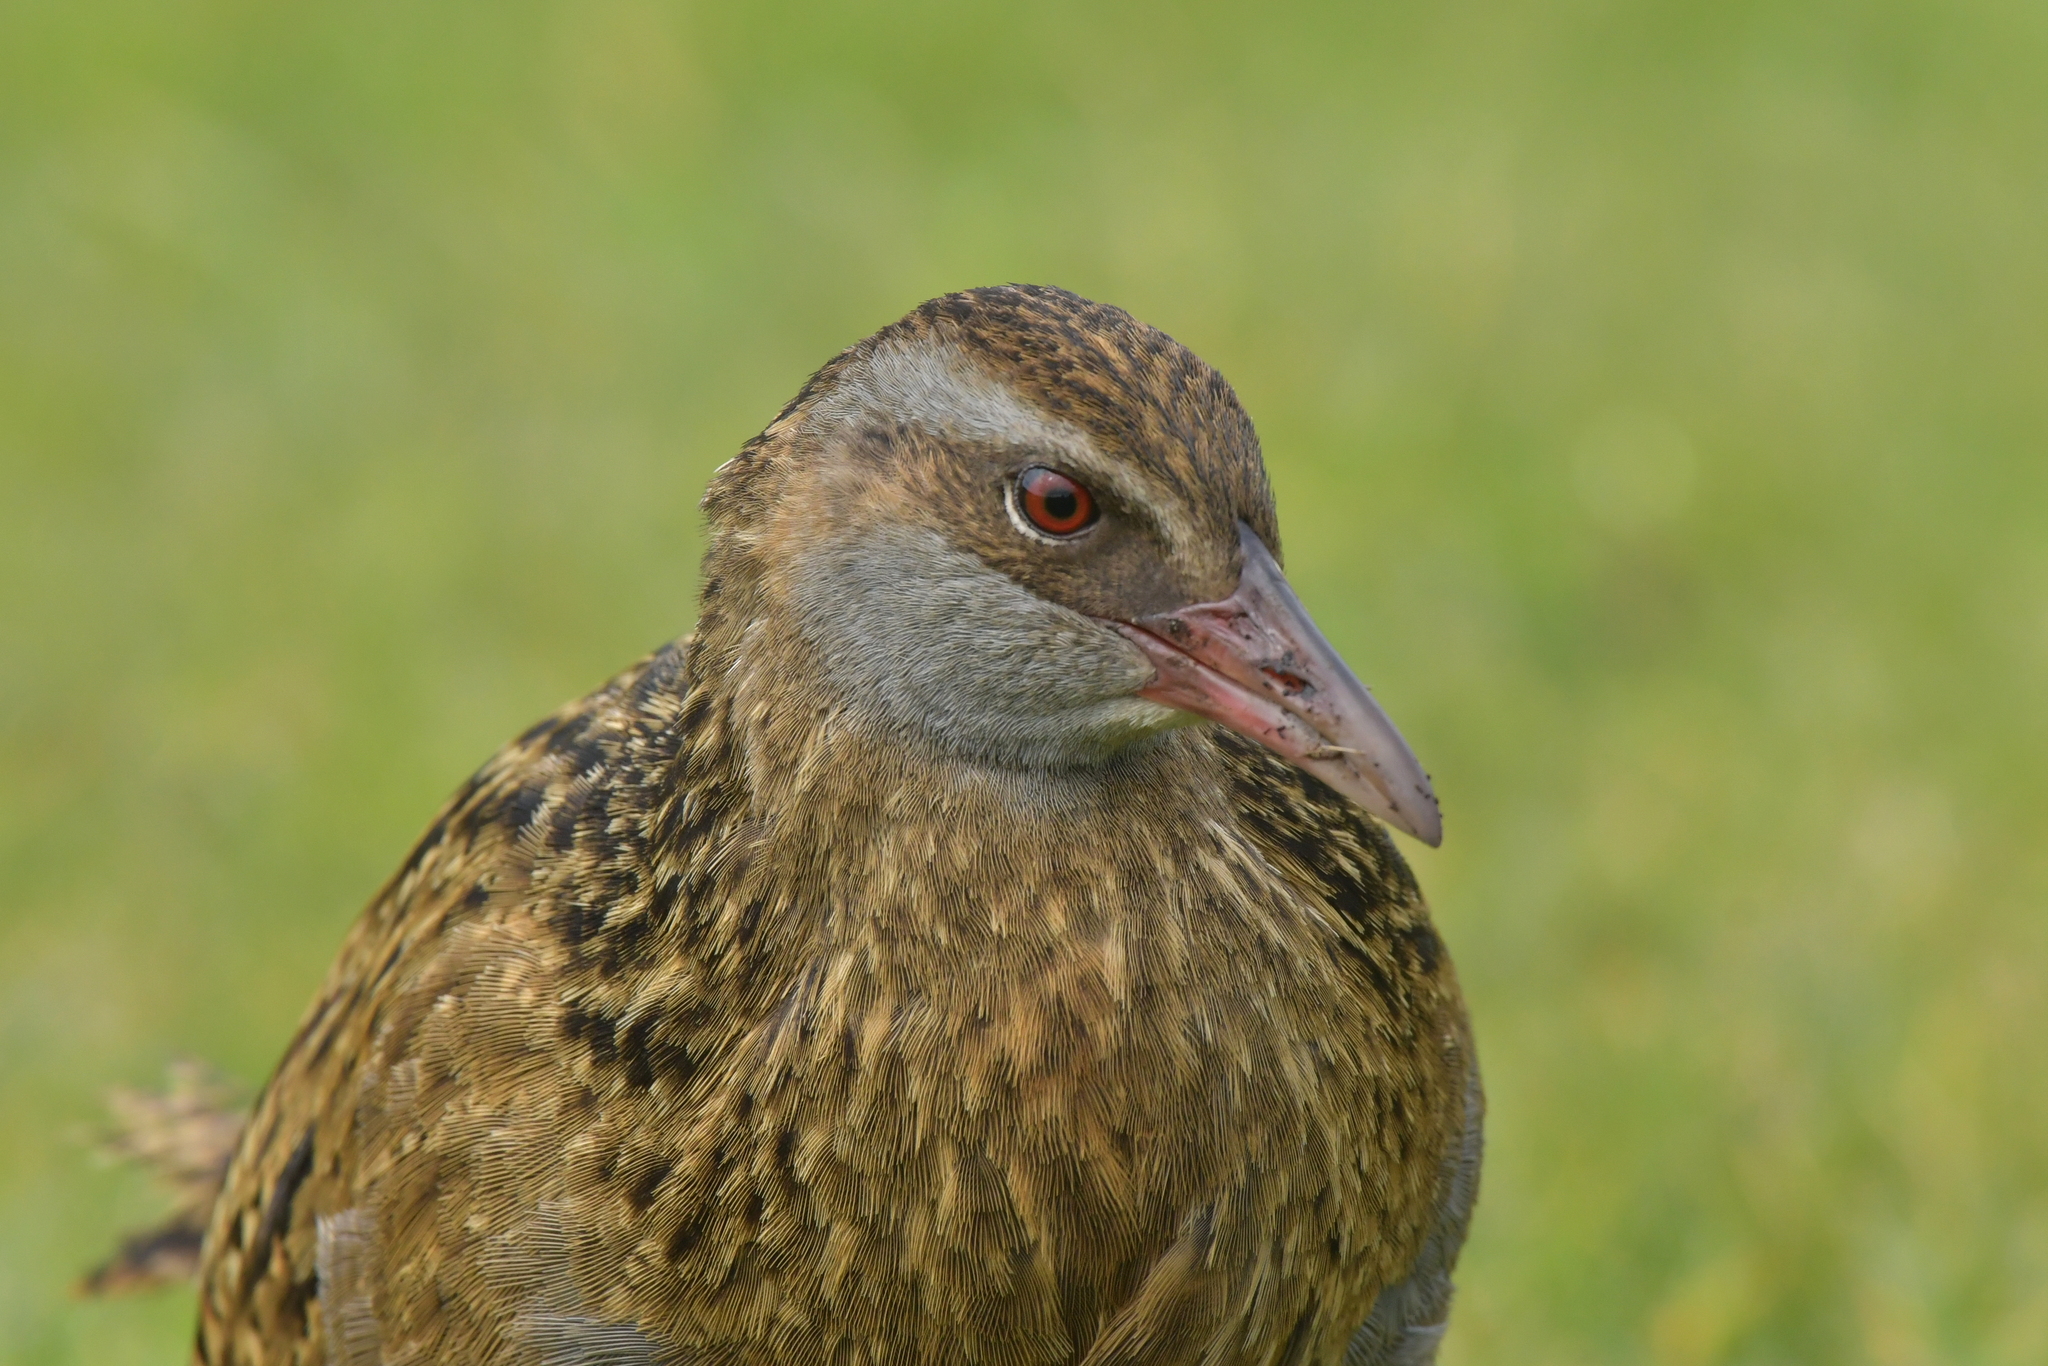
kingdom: Animalia
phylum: Chordata
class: Aves
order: Gruiformes
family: Rallidae
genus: Gallirallus
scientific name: Gallirallus australis
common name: Weka
